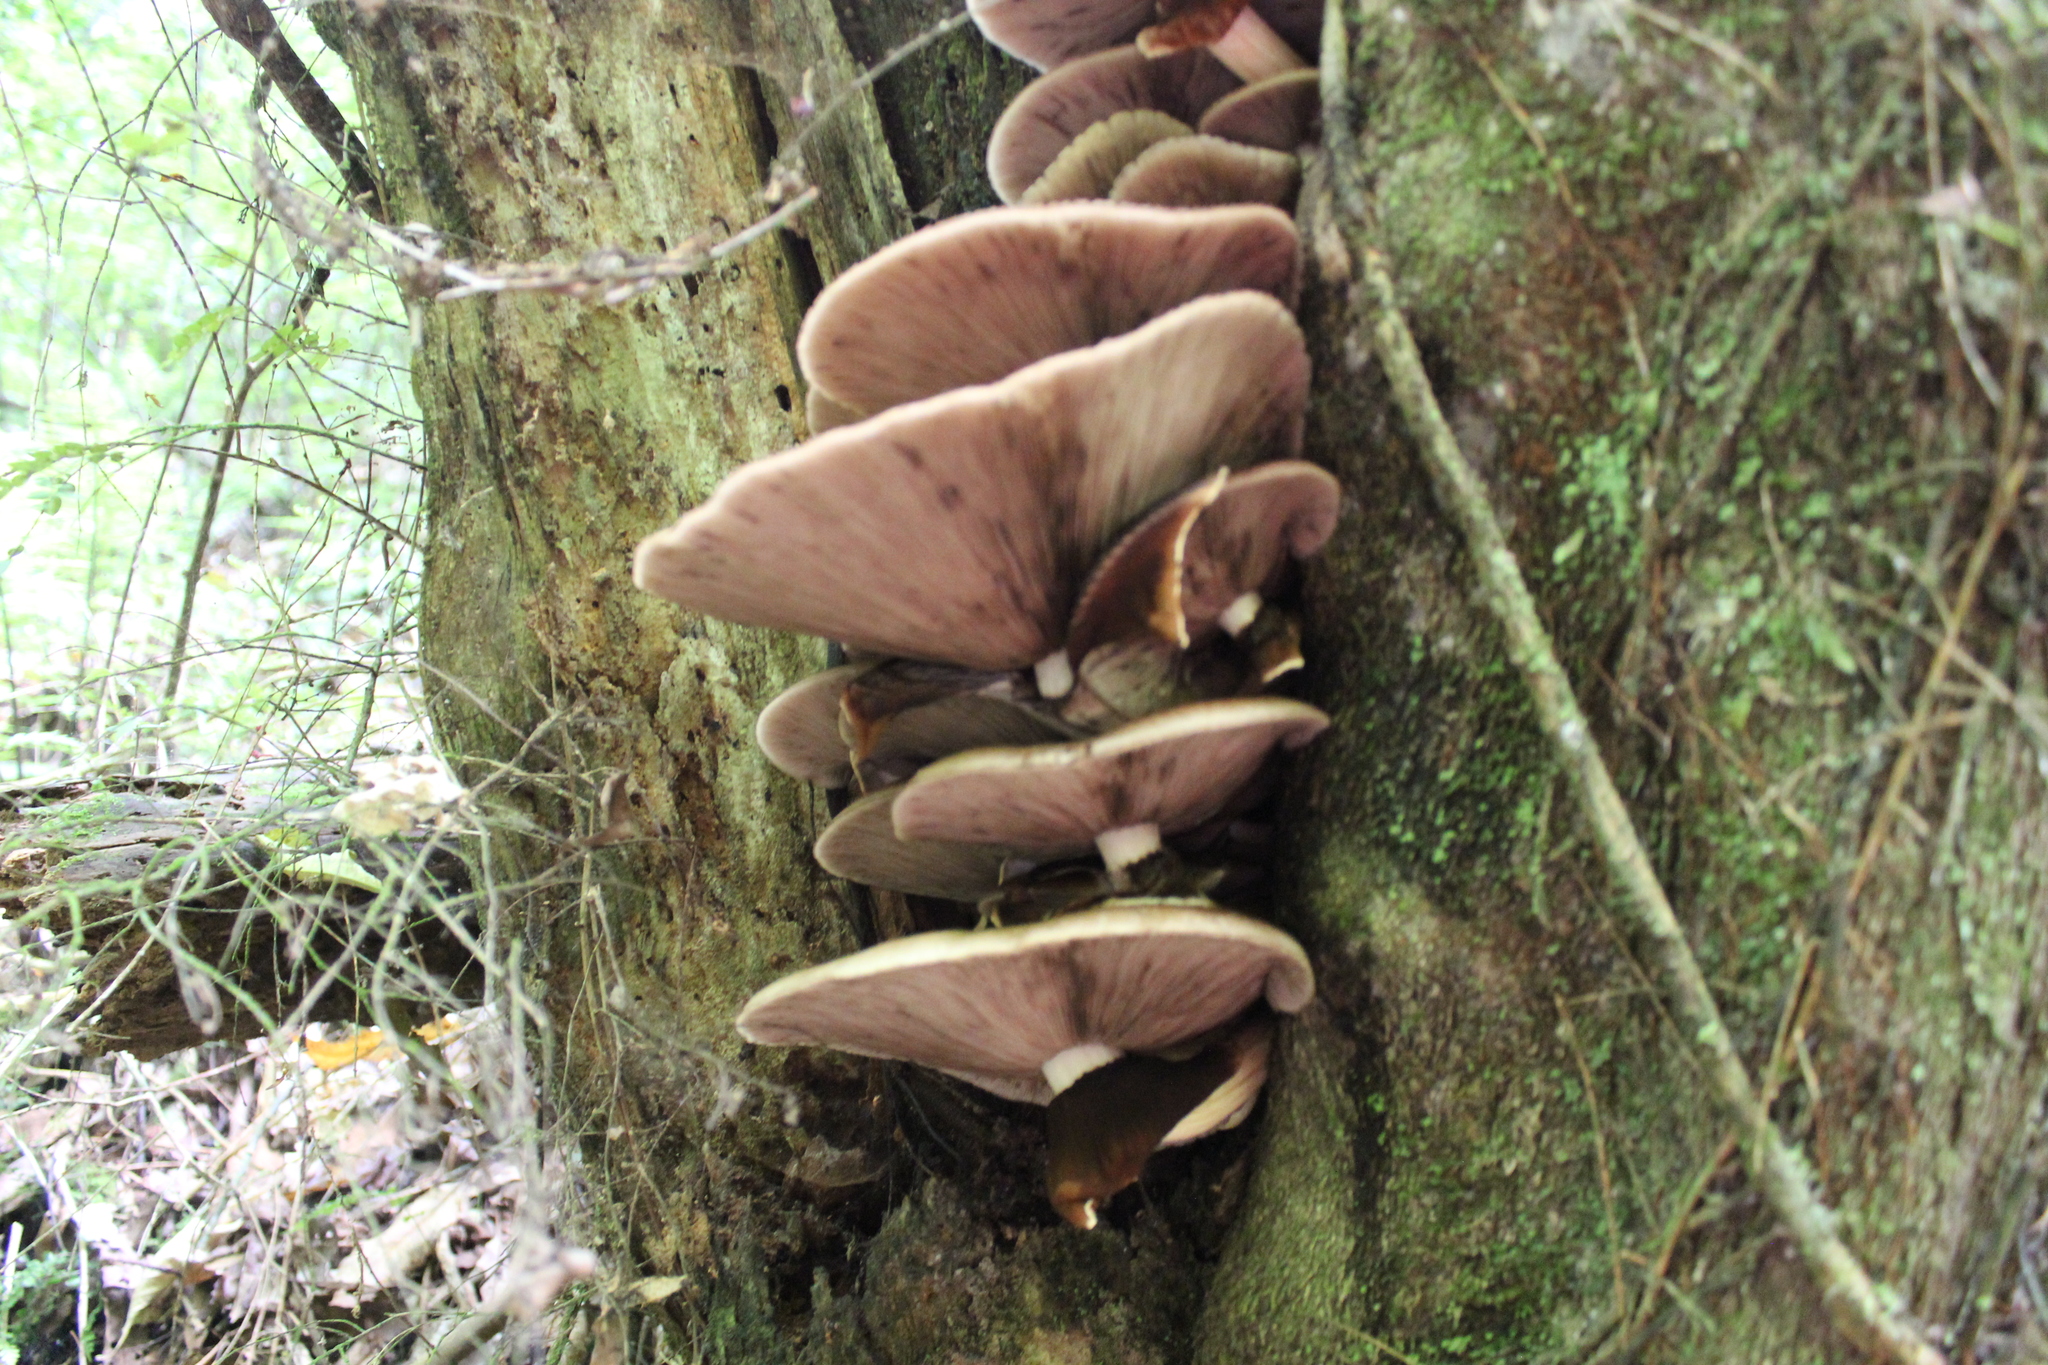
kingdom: Fungi
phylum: Basidiomycota
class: Agaricomycetes
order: Agaricales
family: Tubariaceae
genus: Cyclocybe
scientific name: Cyclocybe parasitica
